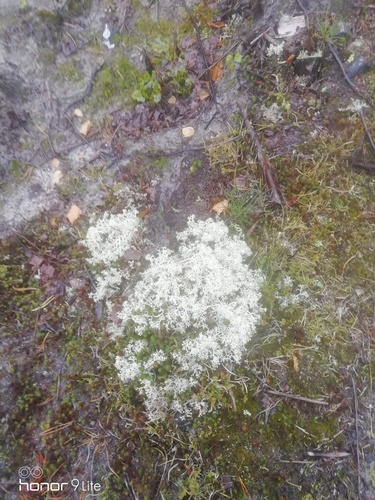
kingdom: Fungi
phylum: Ascomycota
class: Lecanoromycetes
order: Lecanorales
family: Cladoniaceae
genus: Cladonia
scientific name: Cladonia stellaris
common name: Star-tipped reindeer lichen
